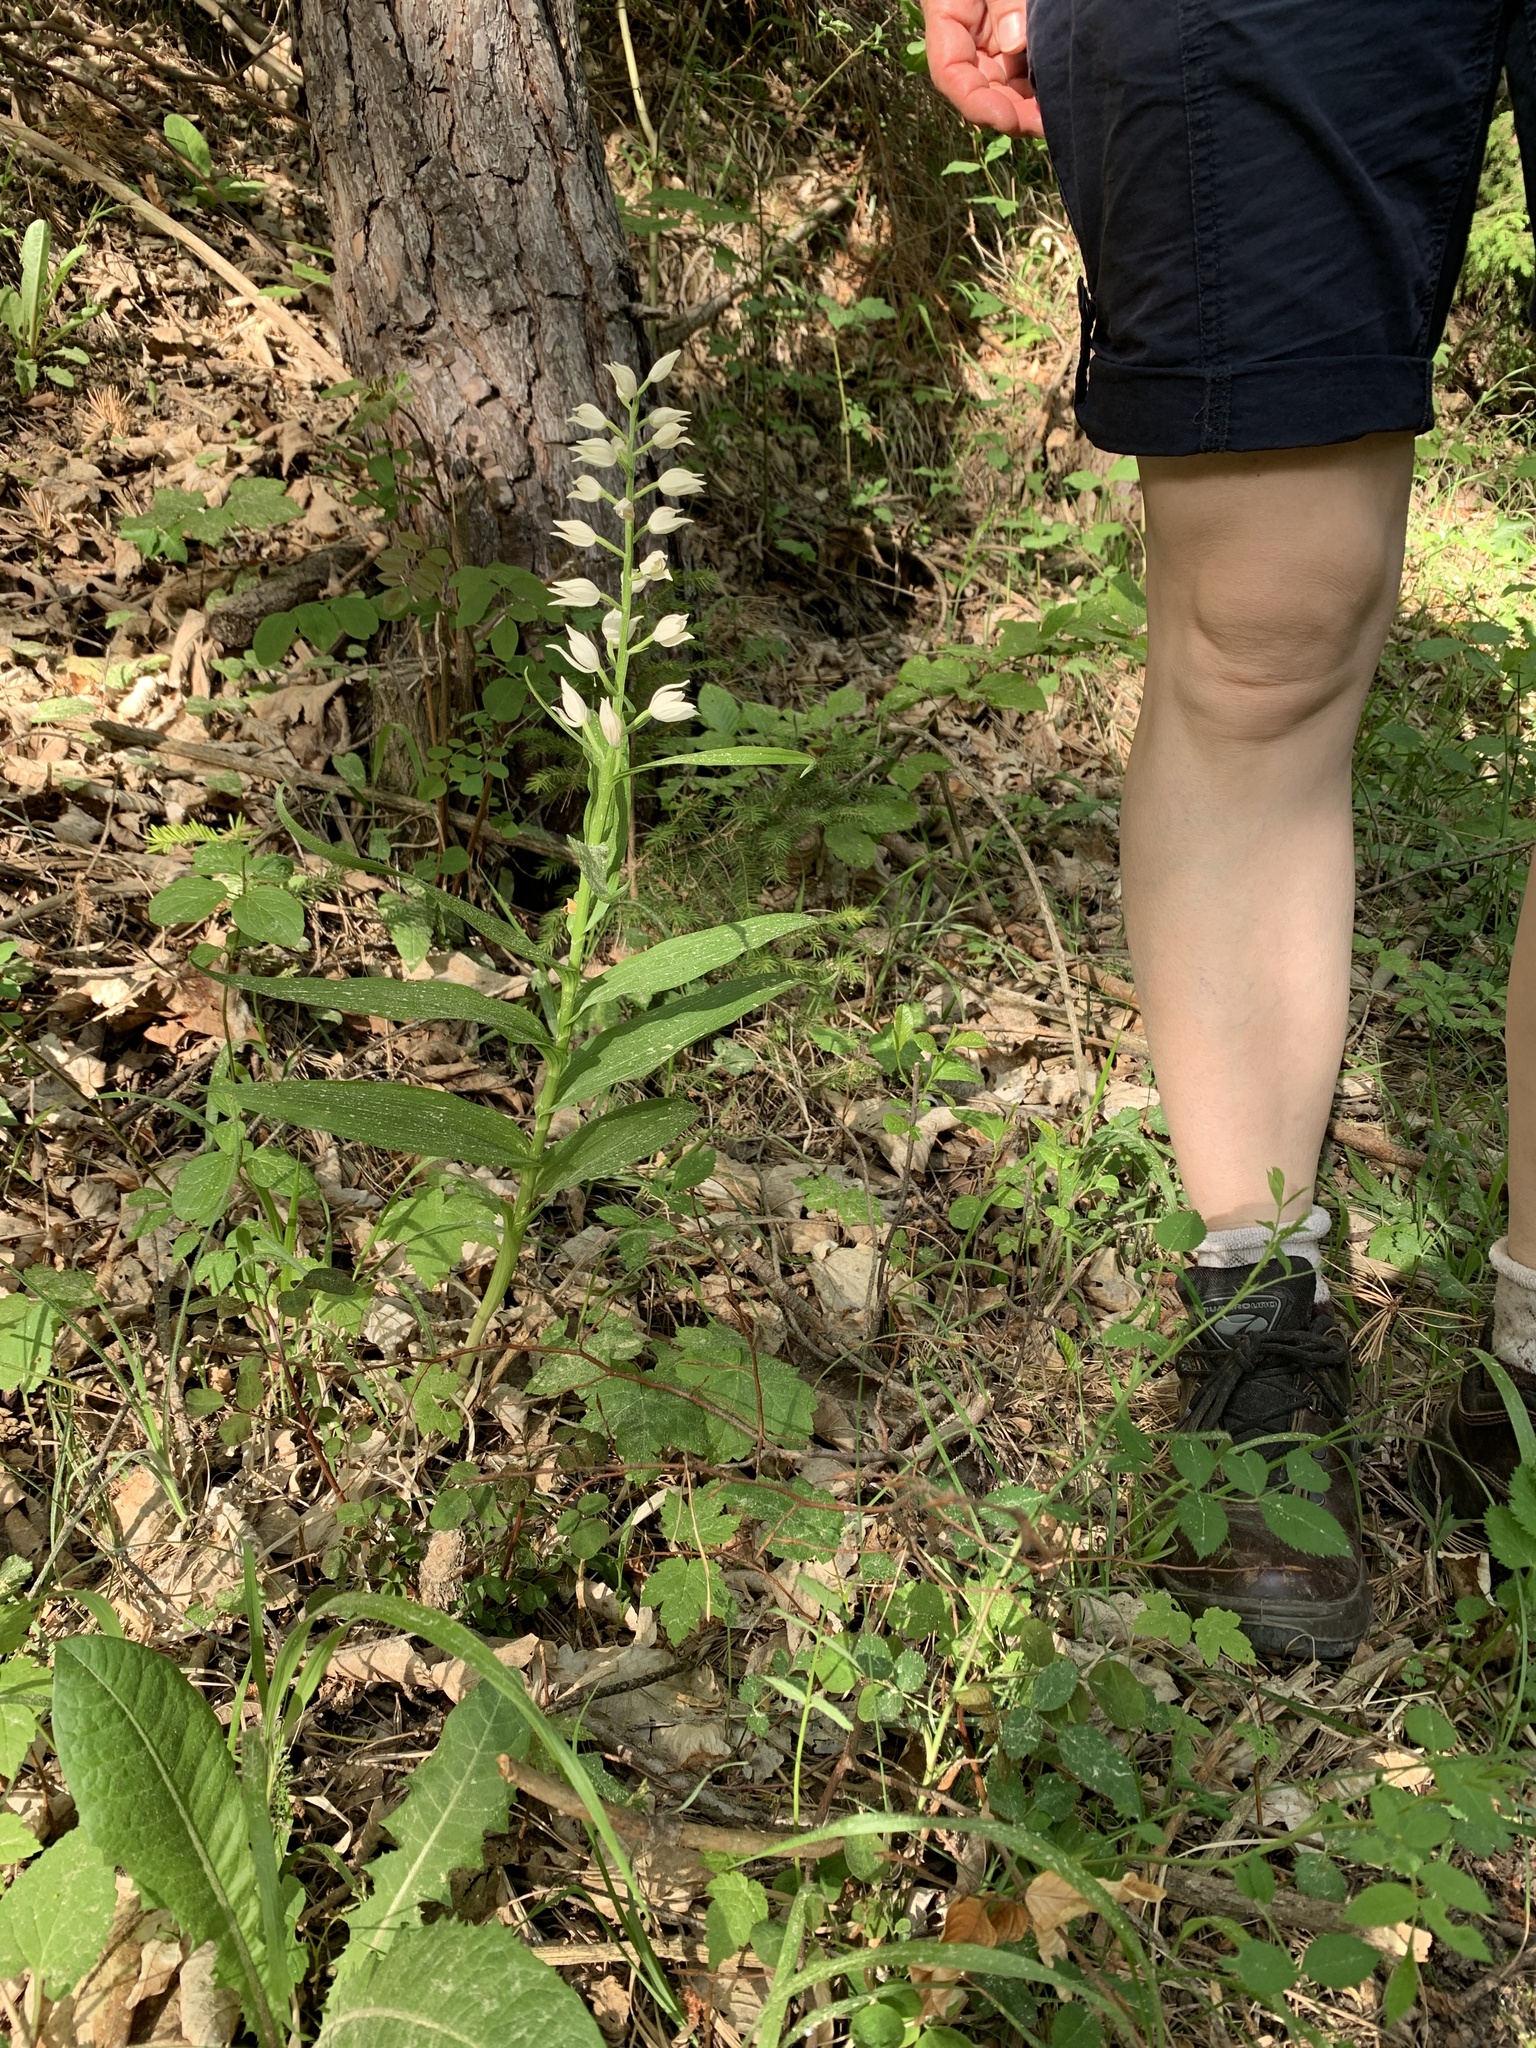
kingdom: Plantae
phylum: Tracheophyta
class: Liliopsida
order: Asparagales
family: Orchidaceae
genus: Cephalanthera
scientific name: Cephalanthera longifolia
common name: Narrow-leaved helleborine
